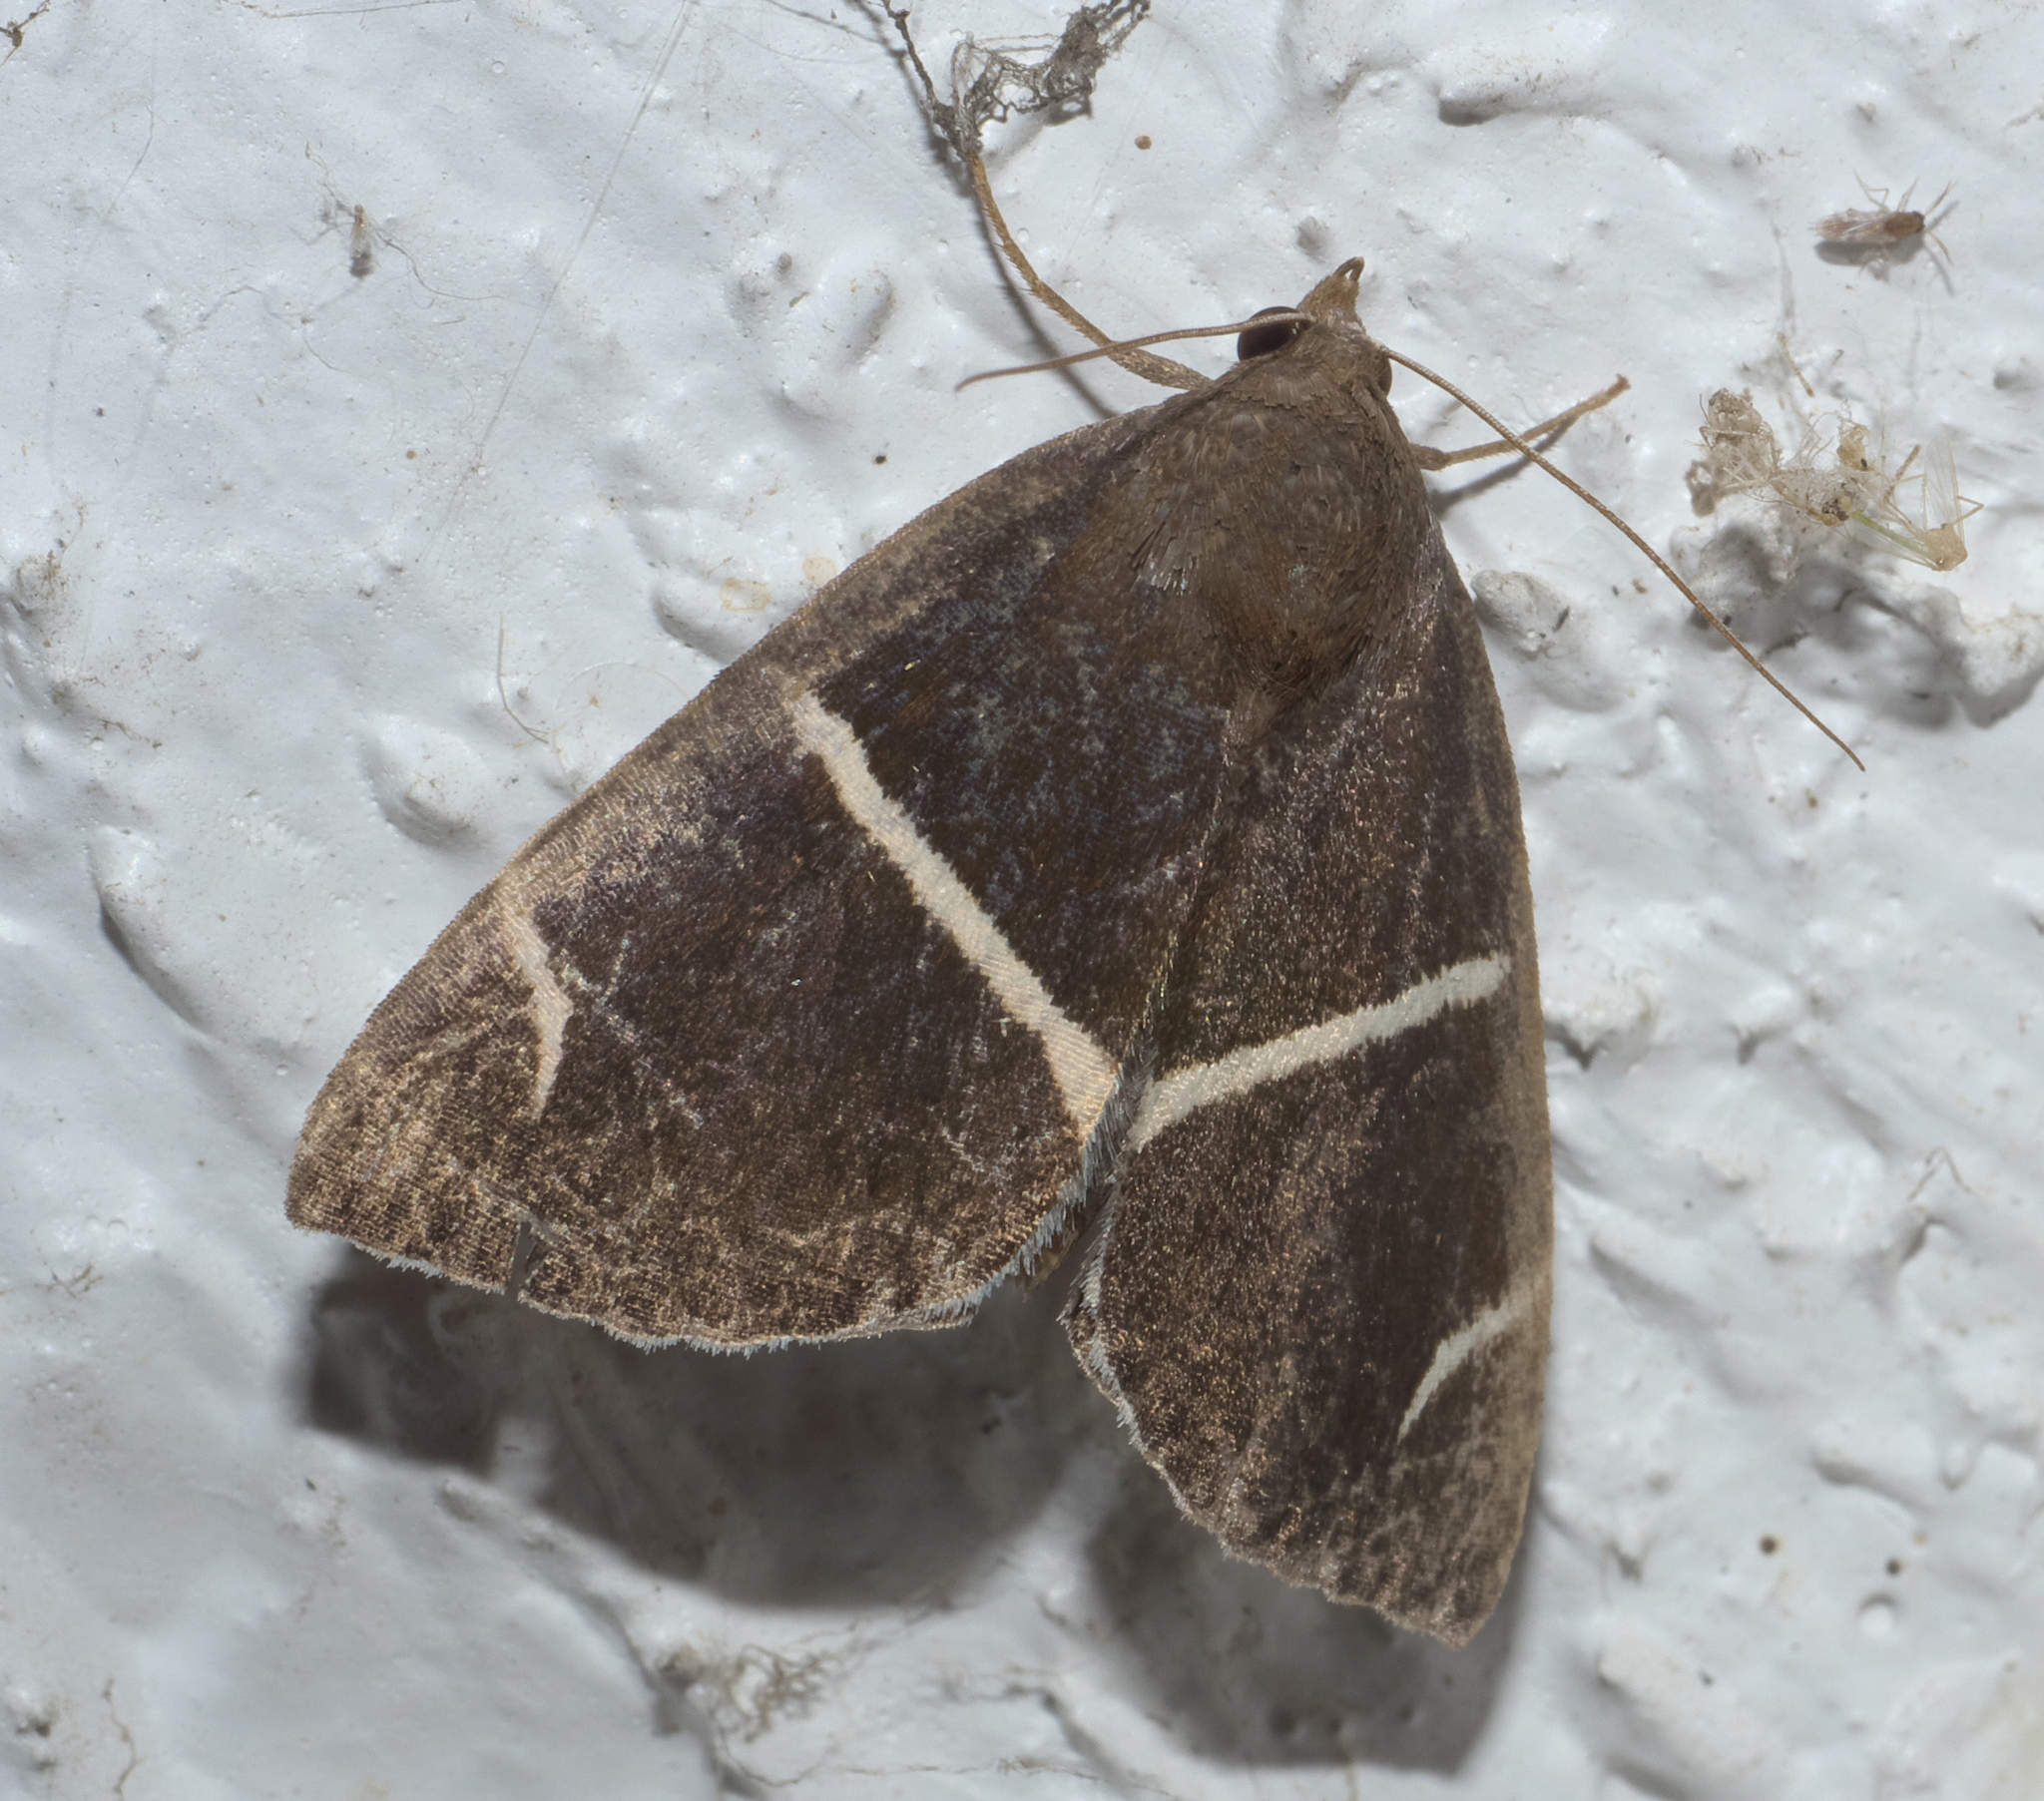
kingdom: Animalia
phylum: Arthropoda
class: Insecta
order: Lepidoptera
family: Erebidae
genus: Argyrostrotis
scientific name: Argyrostrotis anilis
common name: Short-lined chocolate
